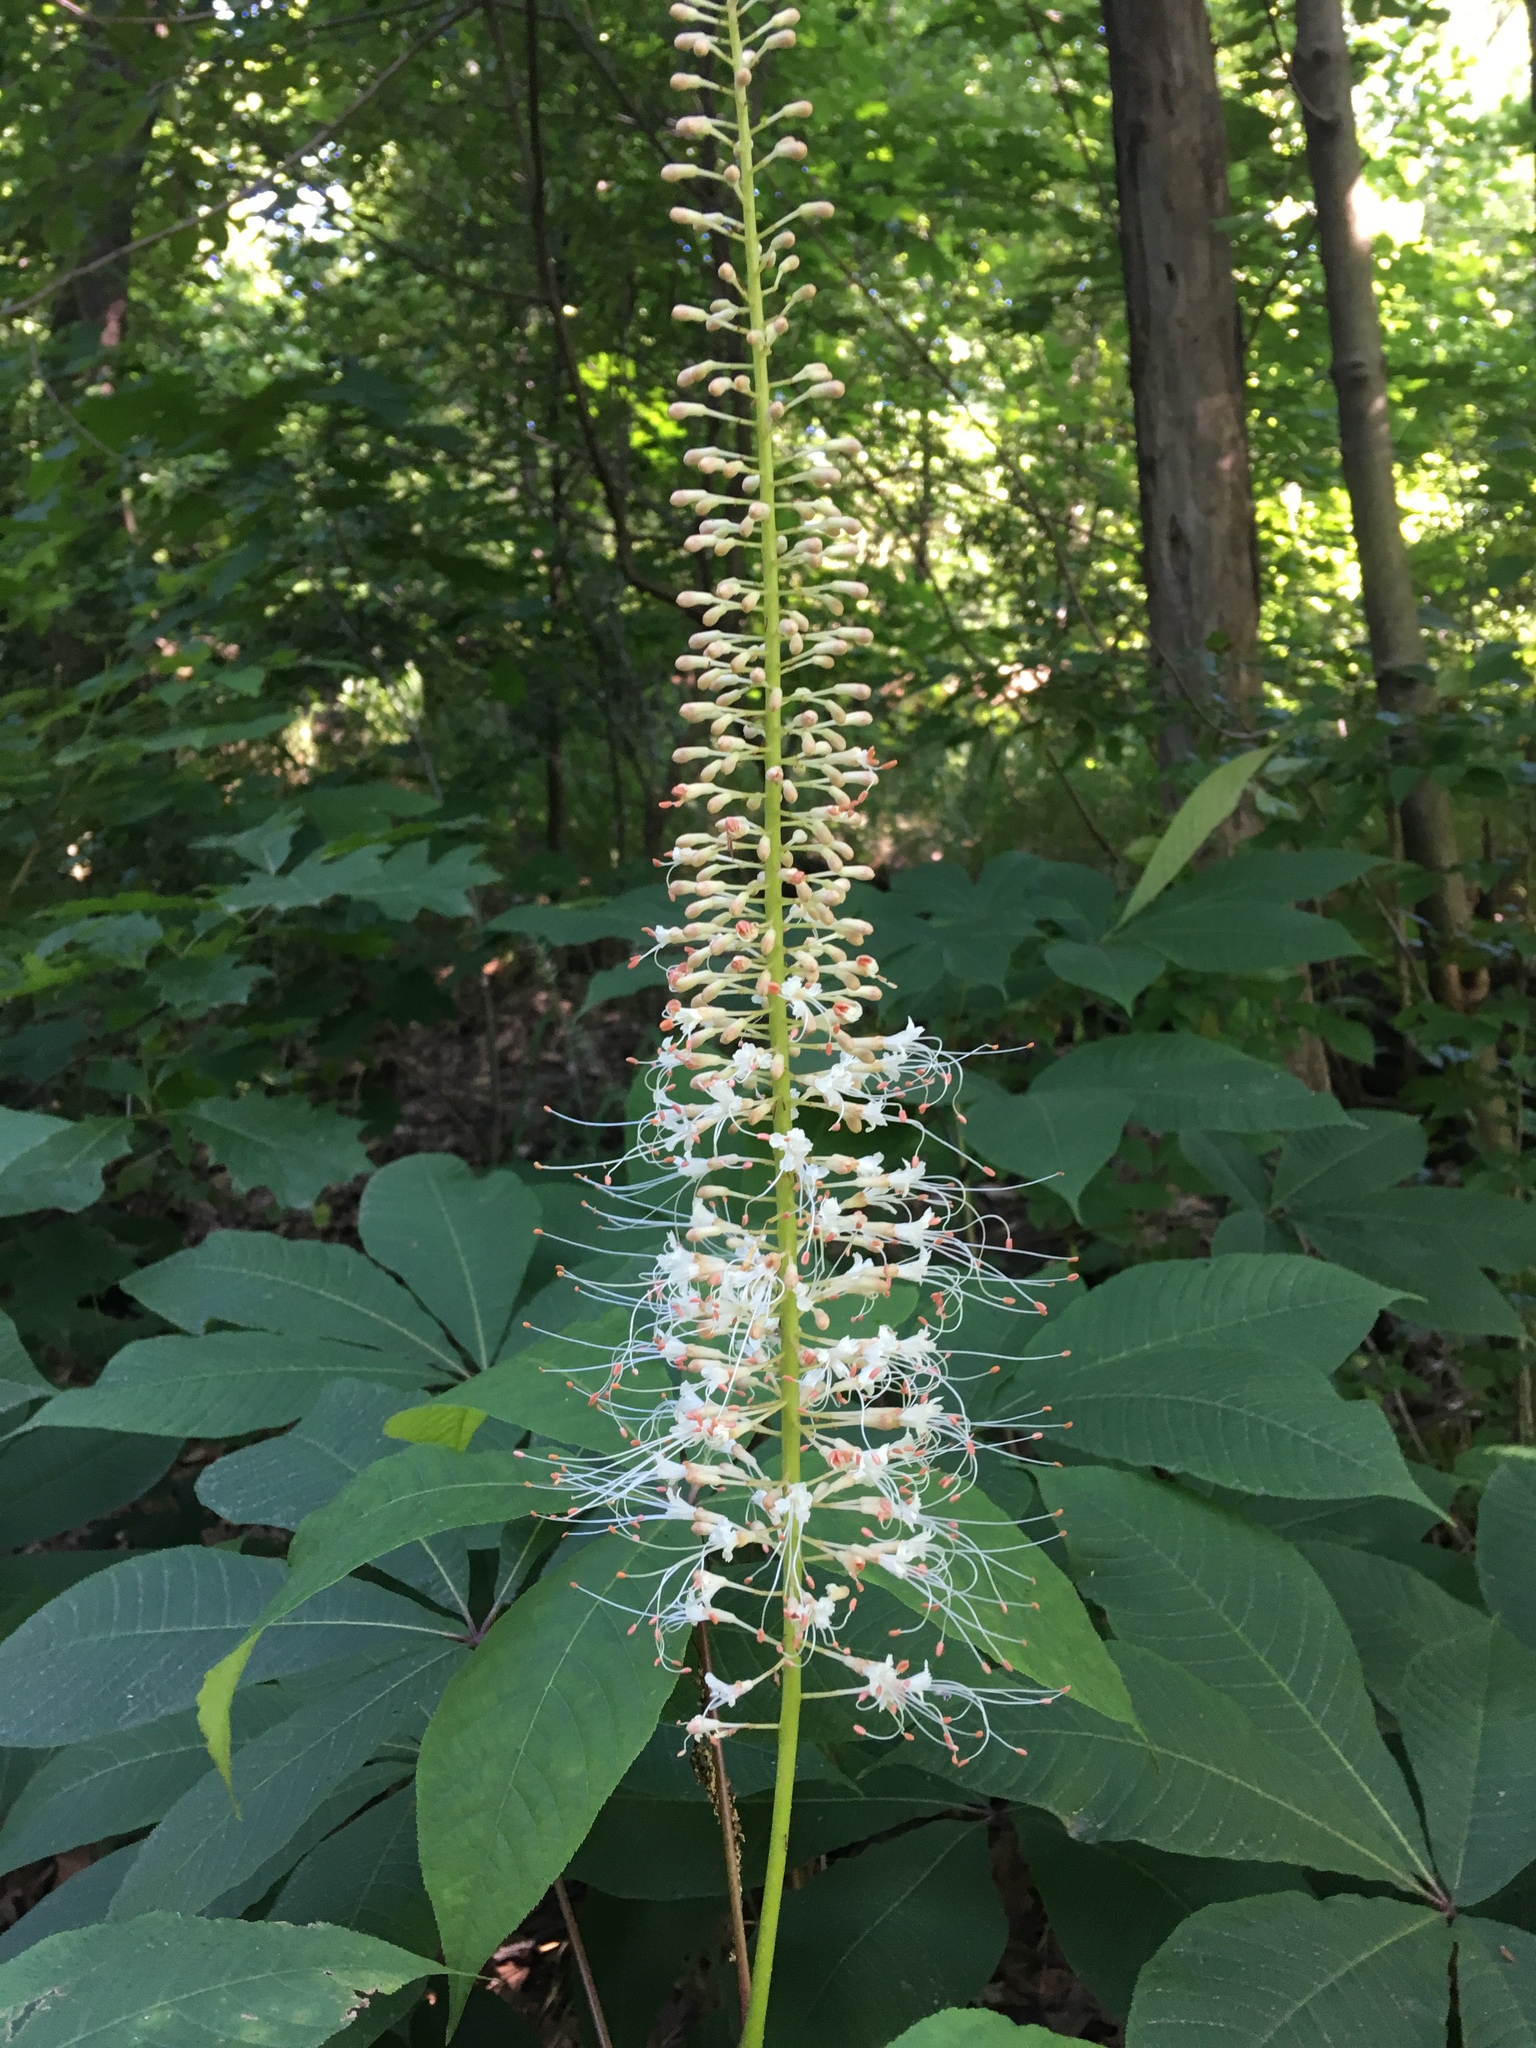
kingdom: Plantae
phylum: Tracheophyta
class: Magnoliopsida
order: Sapindales
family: Sapindaceae
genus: Aesculus
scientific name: Aesculus parviflora
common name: Bottlebrush buckeye
